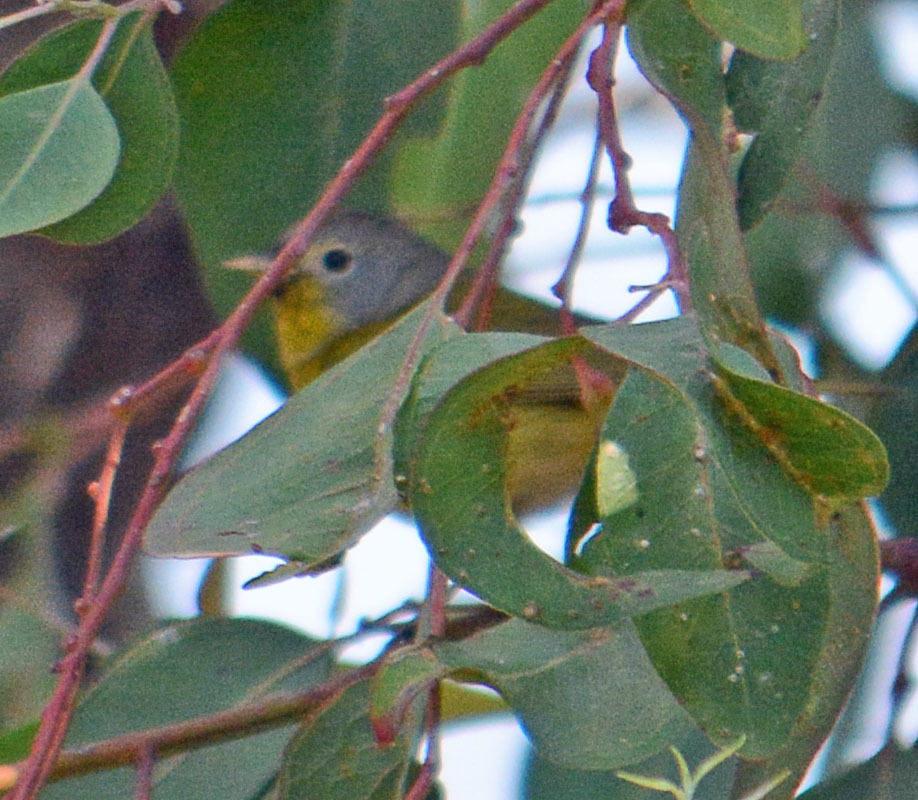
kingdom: Animalia
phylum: Chordata
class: Aves
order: Passeriformes
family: Parulidae
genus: Leiothlypis
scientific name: Leiothlypis ruficapilla
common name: Nashville warbler
